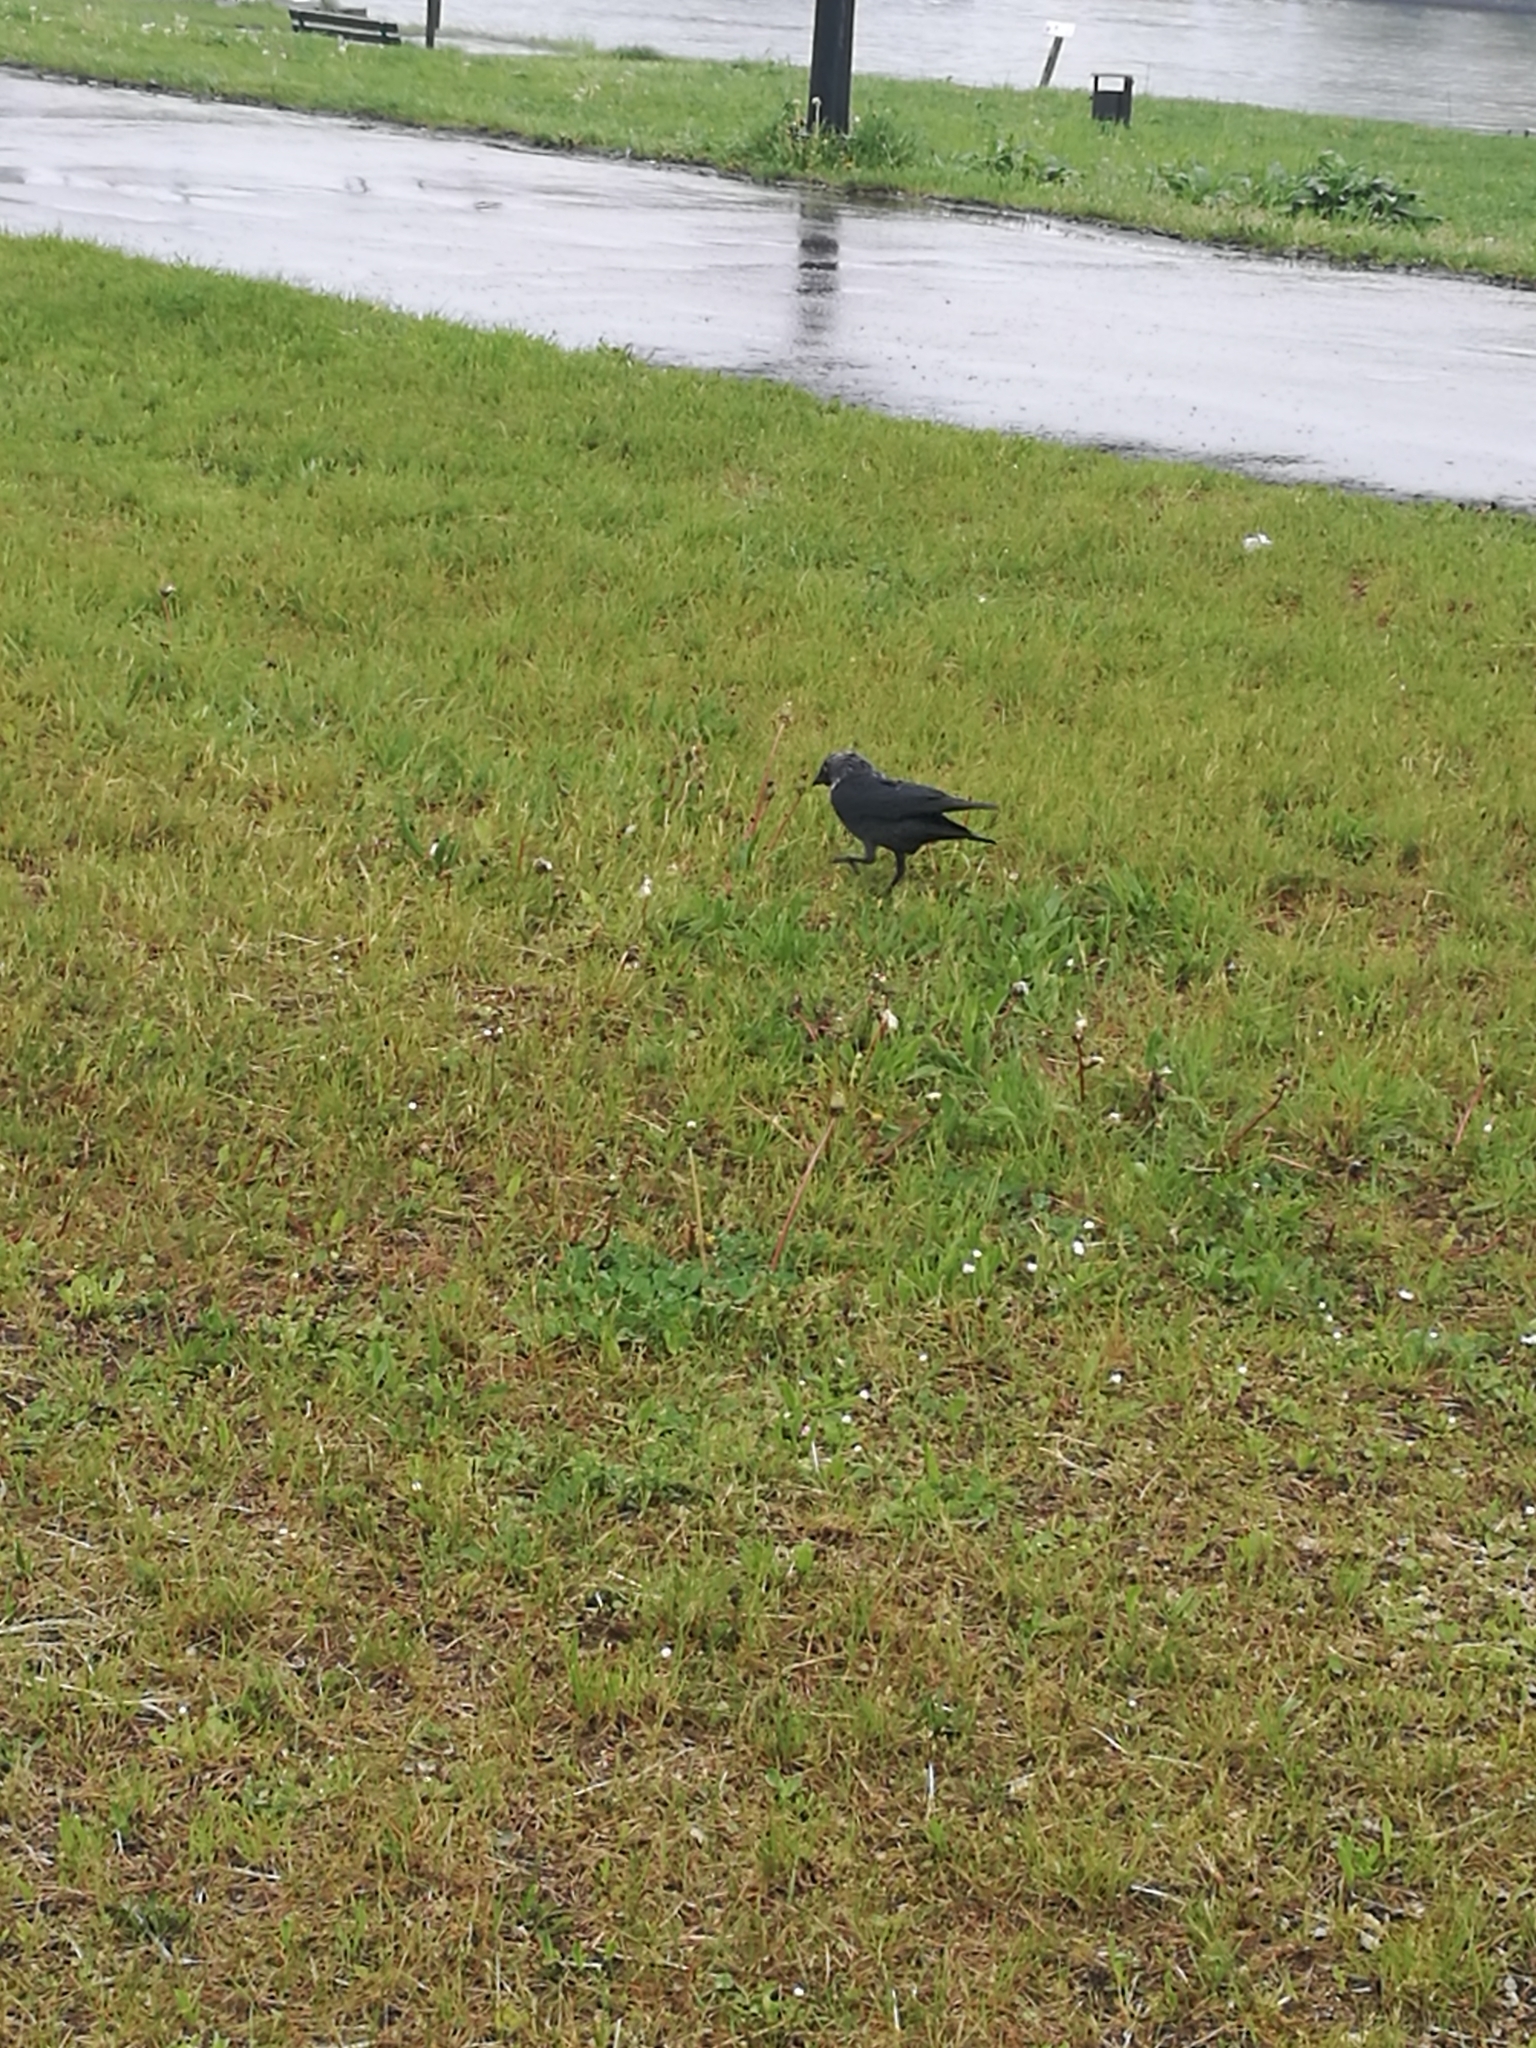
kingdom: Animalia
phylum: Chordata
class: Aves
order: Passeriformes
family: Corvidae
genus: Coloeus
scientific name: Coloeus monedula
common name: Western jackdaw
